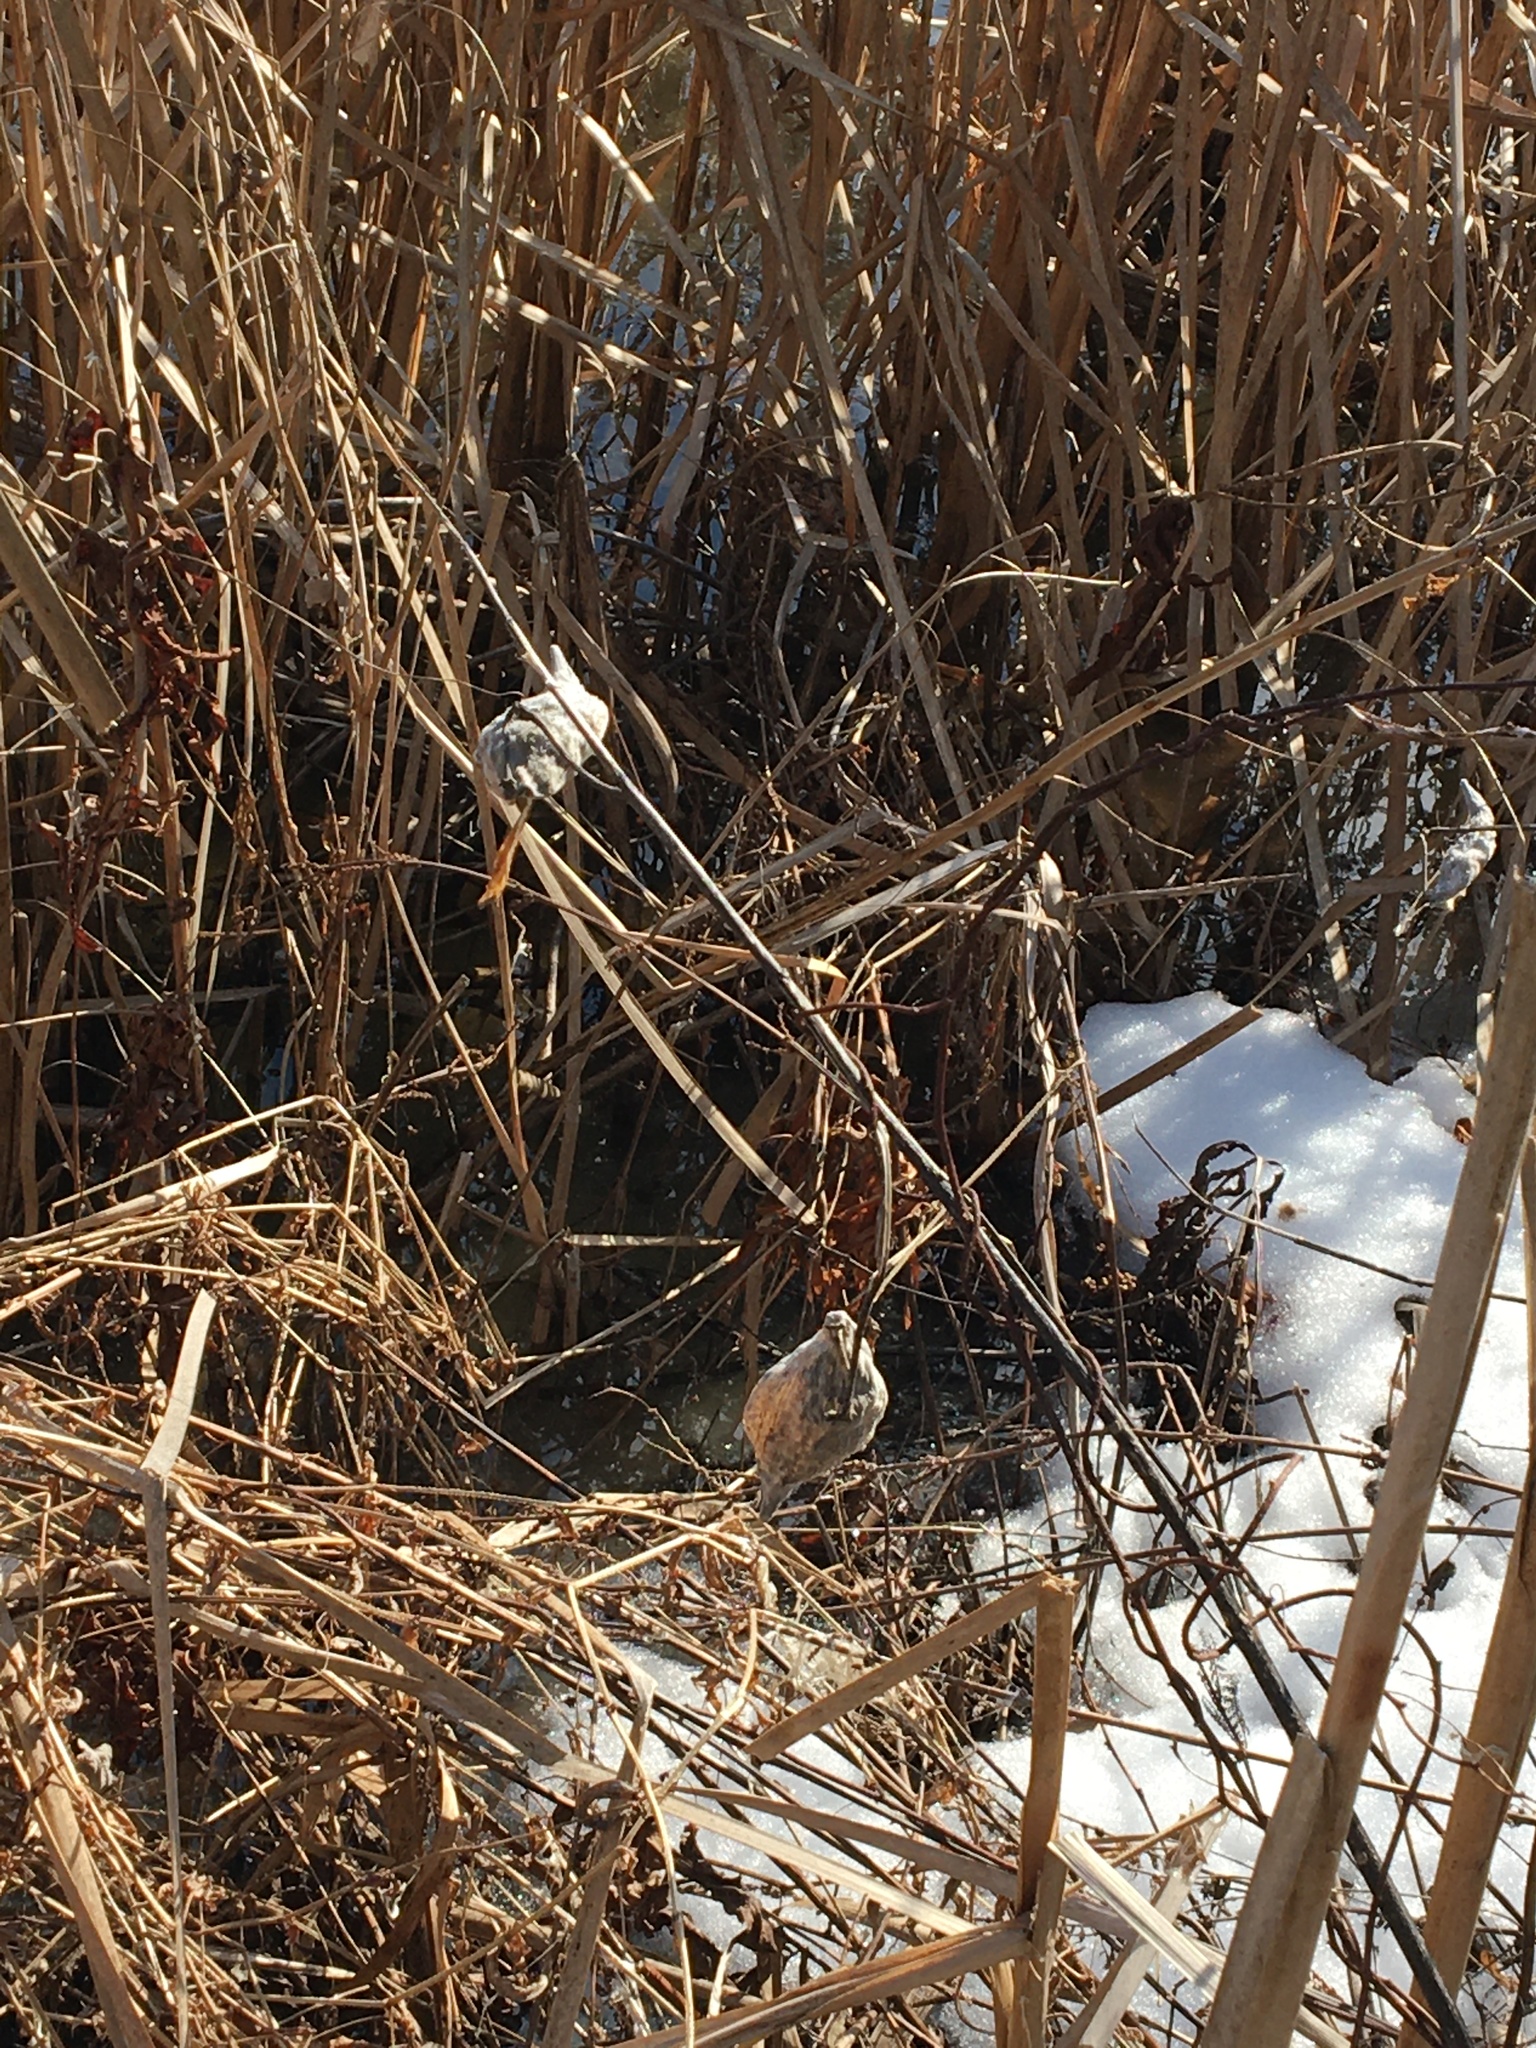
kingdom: Plantae
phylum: Tracheophyta
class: Magnoliopsida
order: Gentianales
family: Apocynaceae
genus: Asclepias
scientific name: Asclepias syriaca
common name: Common milkweed
